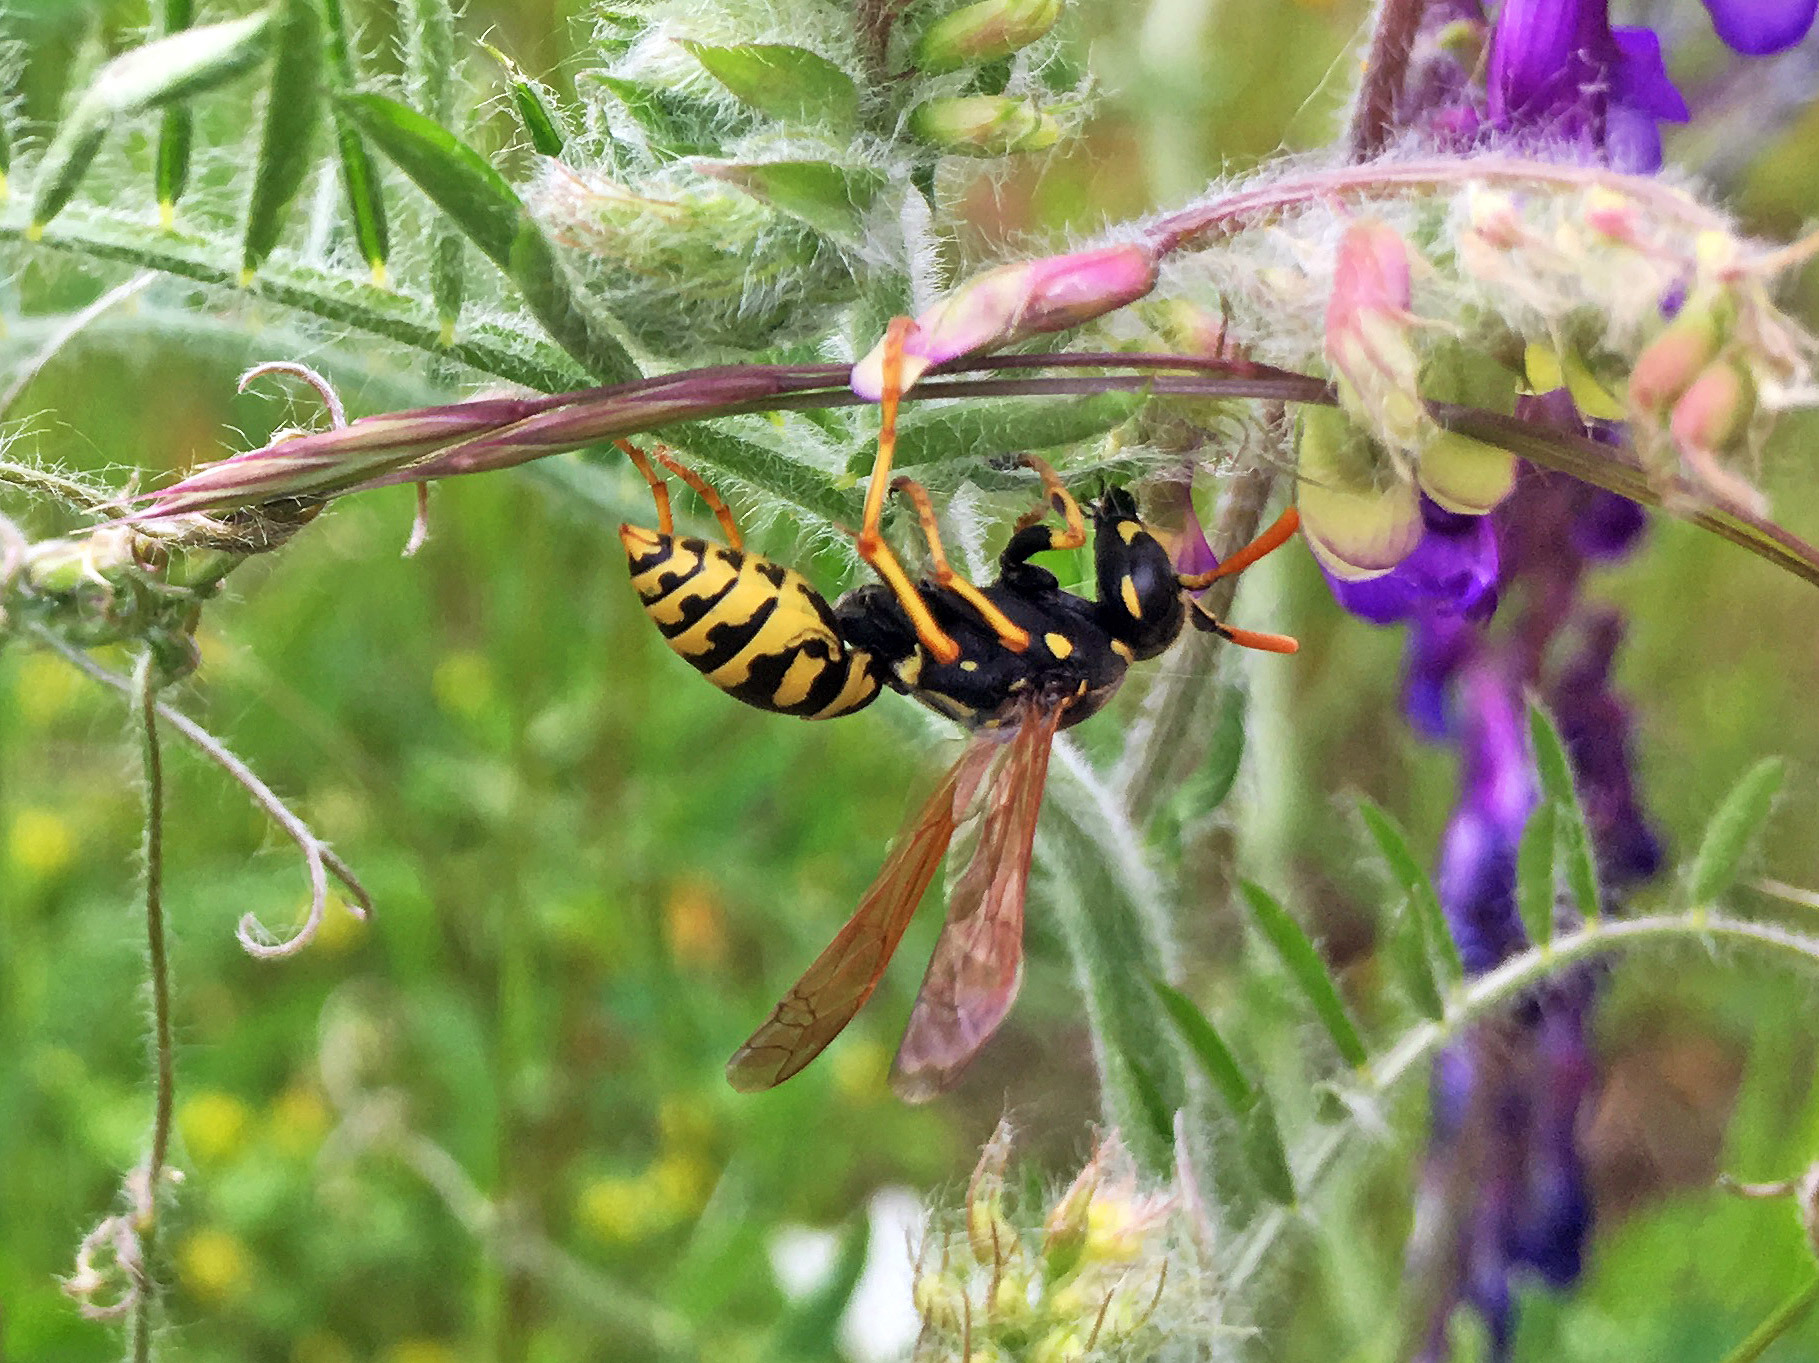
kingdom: Animalia
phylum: Arthropoda
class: Insecta
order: Hymenoptera
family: Eumenidae
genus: Polistes
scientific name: Polistes dominula
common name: Paper wasp
